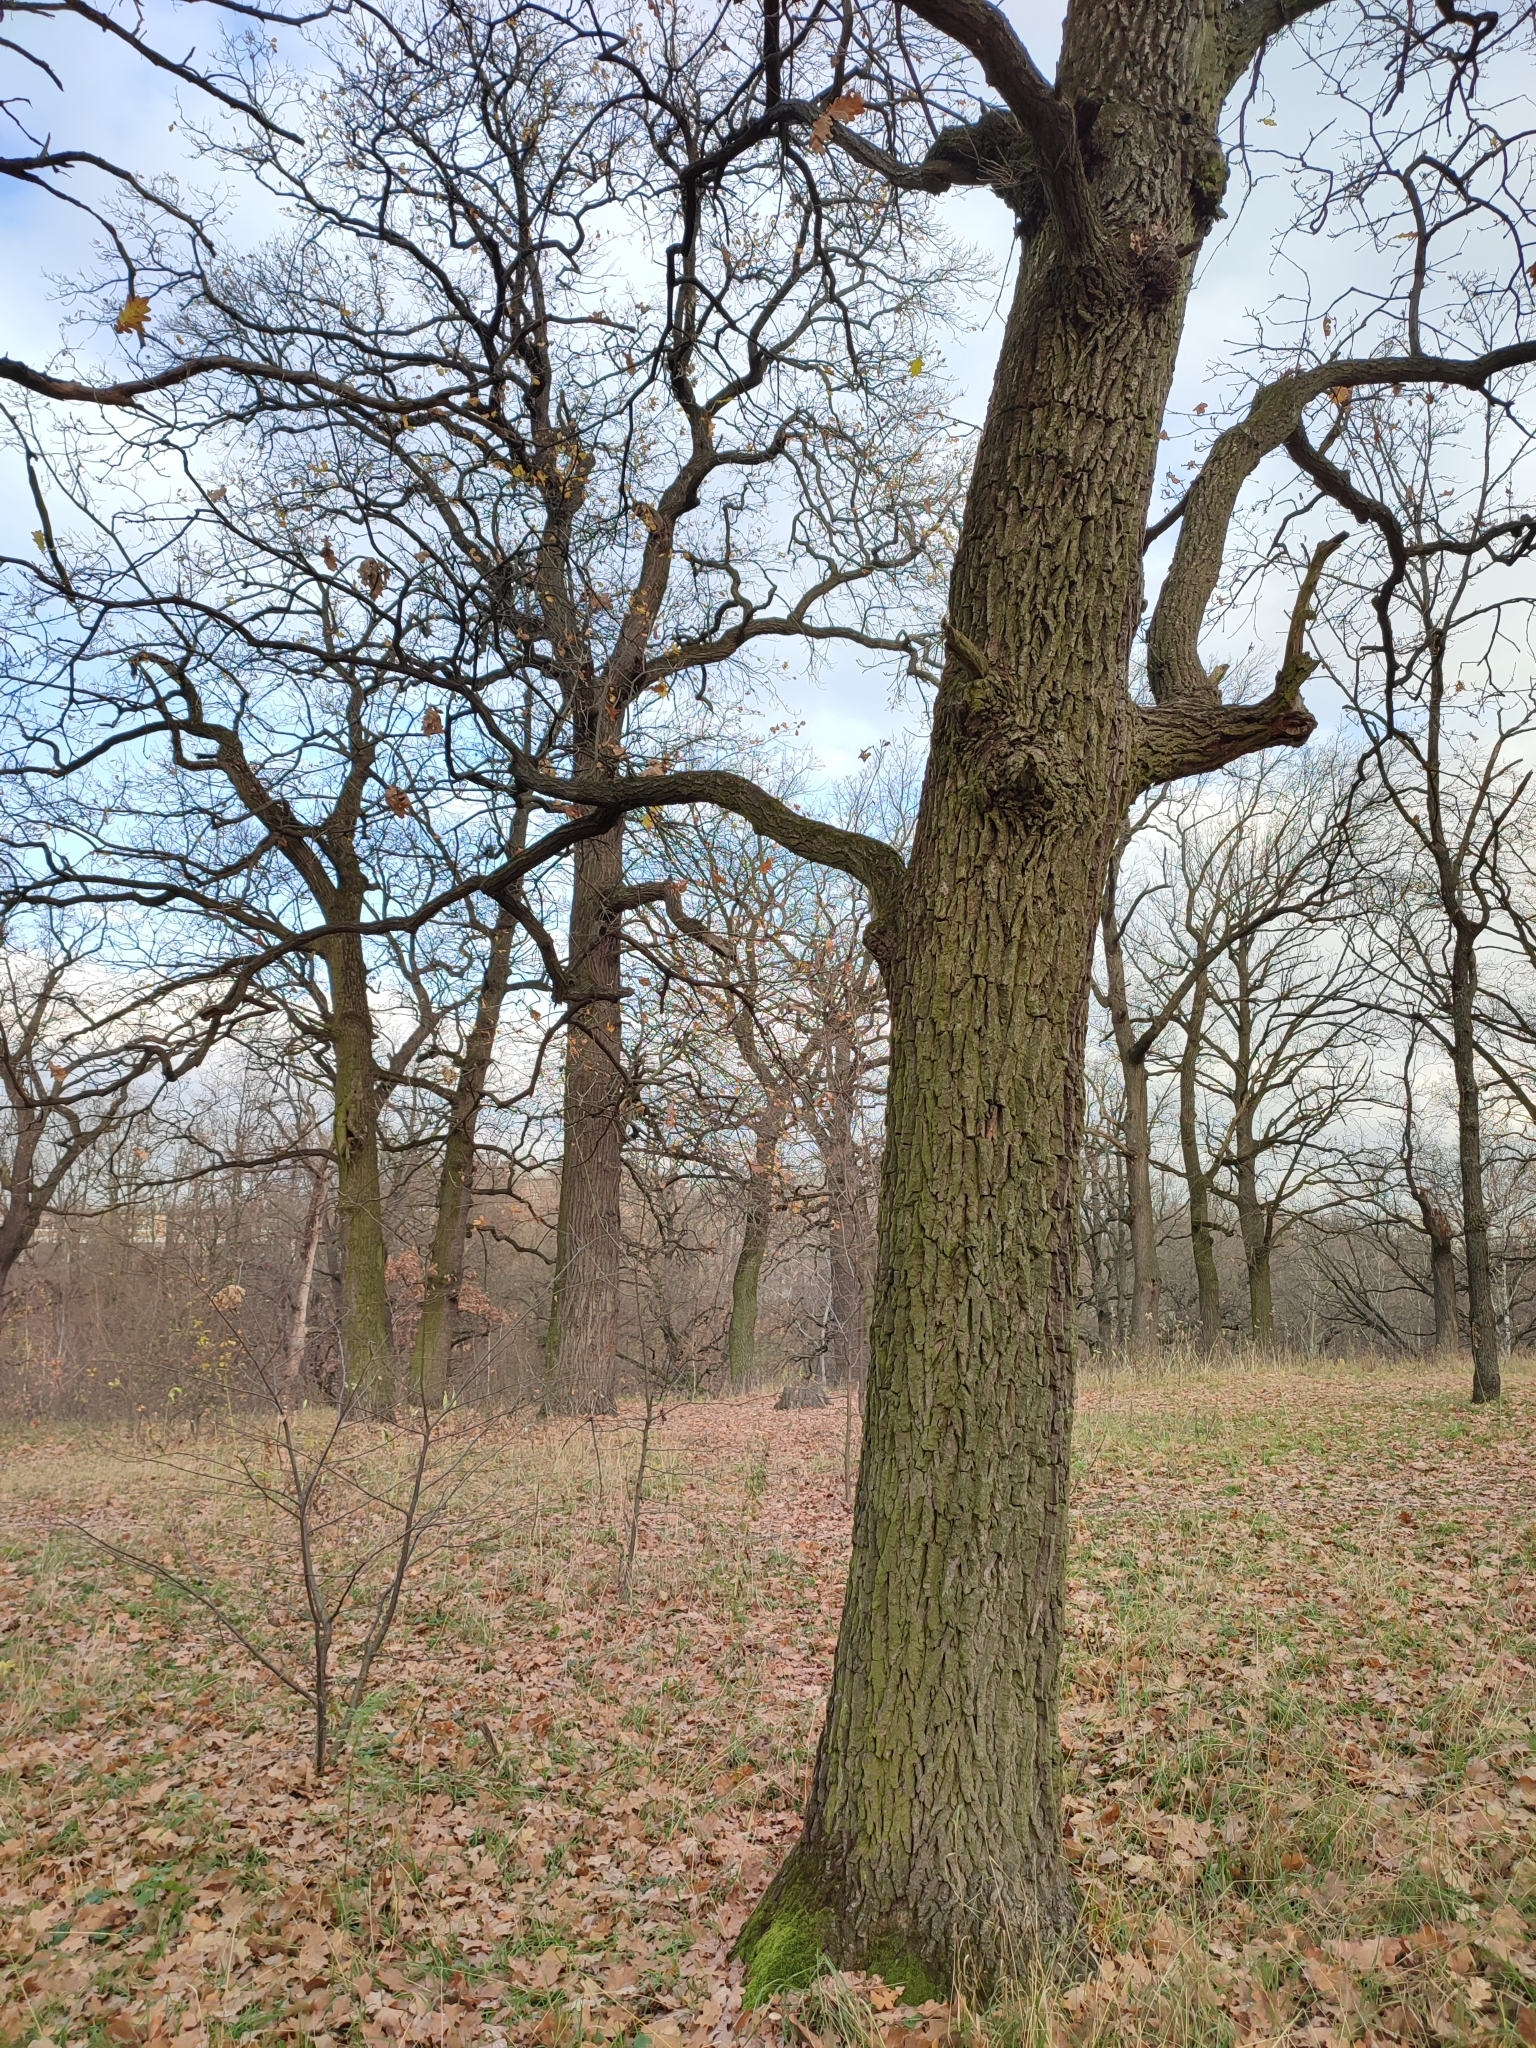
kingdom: Plantae
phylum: Tracheophyta
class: Magnoliopsida
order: Fagales
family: Fagaceae
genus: Quercus
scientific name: Quercus robur
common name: Pedunculate oak
